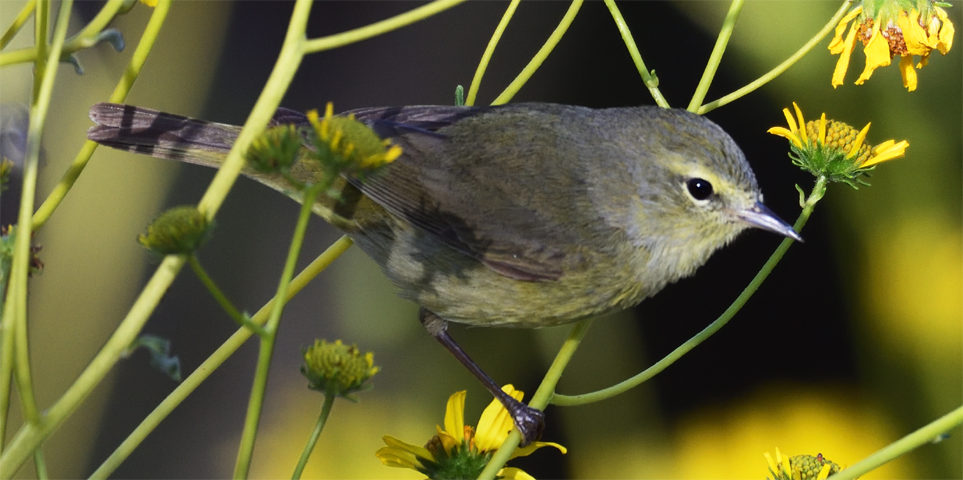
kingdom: Animalia
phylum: Chordata
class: Aves
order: Passeriformes
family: Parulidae
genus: Leiothlypis
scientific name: Leiothlypis celata
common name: Orange-crowned warbler
